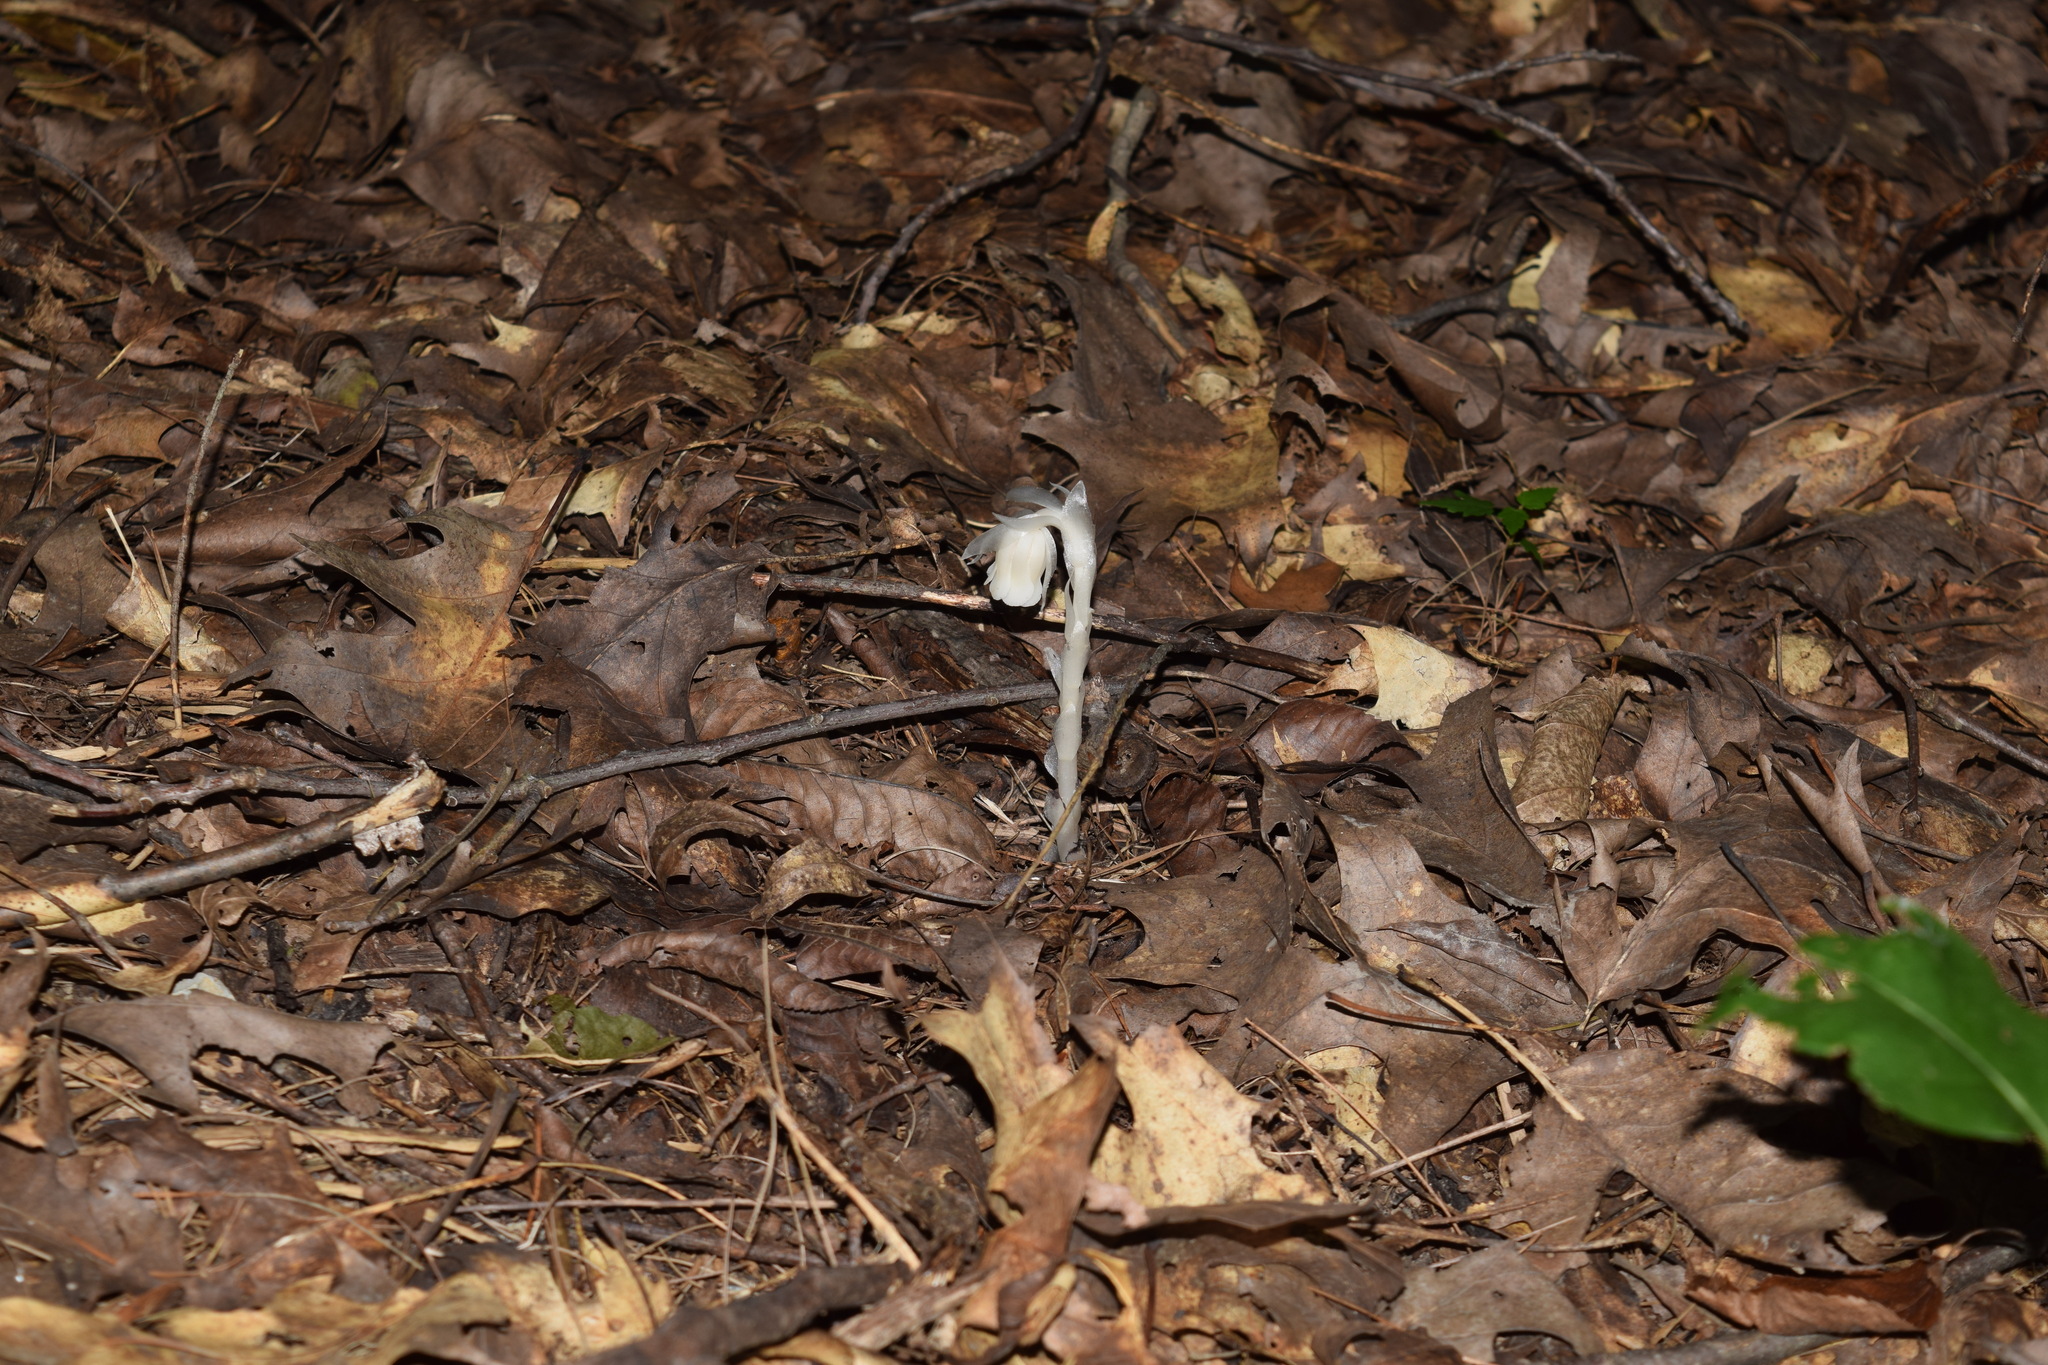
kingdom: Plantae
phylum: Tracheophyta
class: Magnoliopsida
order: Ericales
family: Ericaceae
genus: Monotropa
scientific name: Monotropa uniflora
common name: Convulsion root
